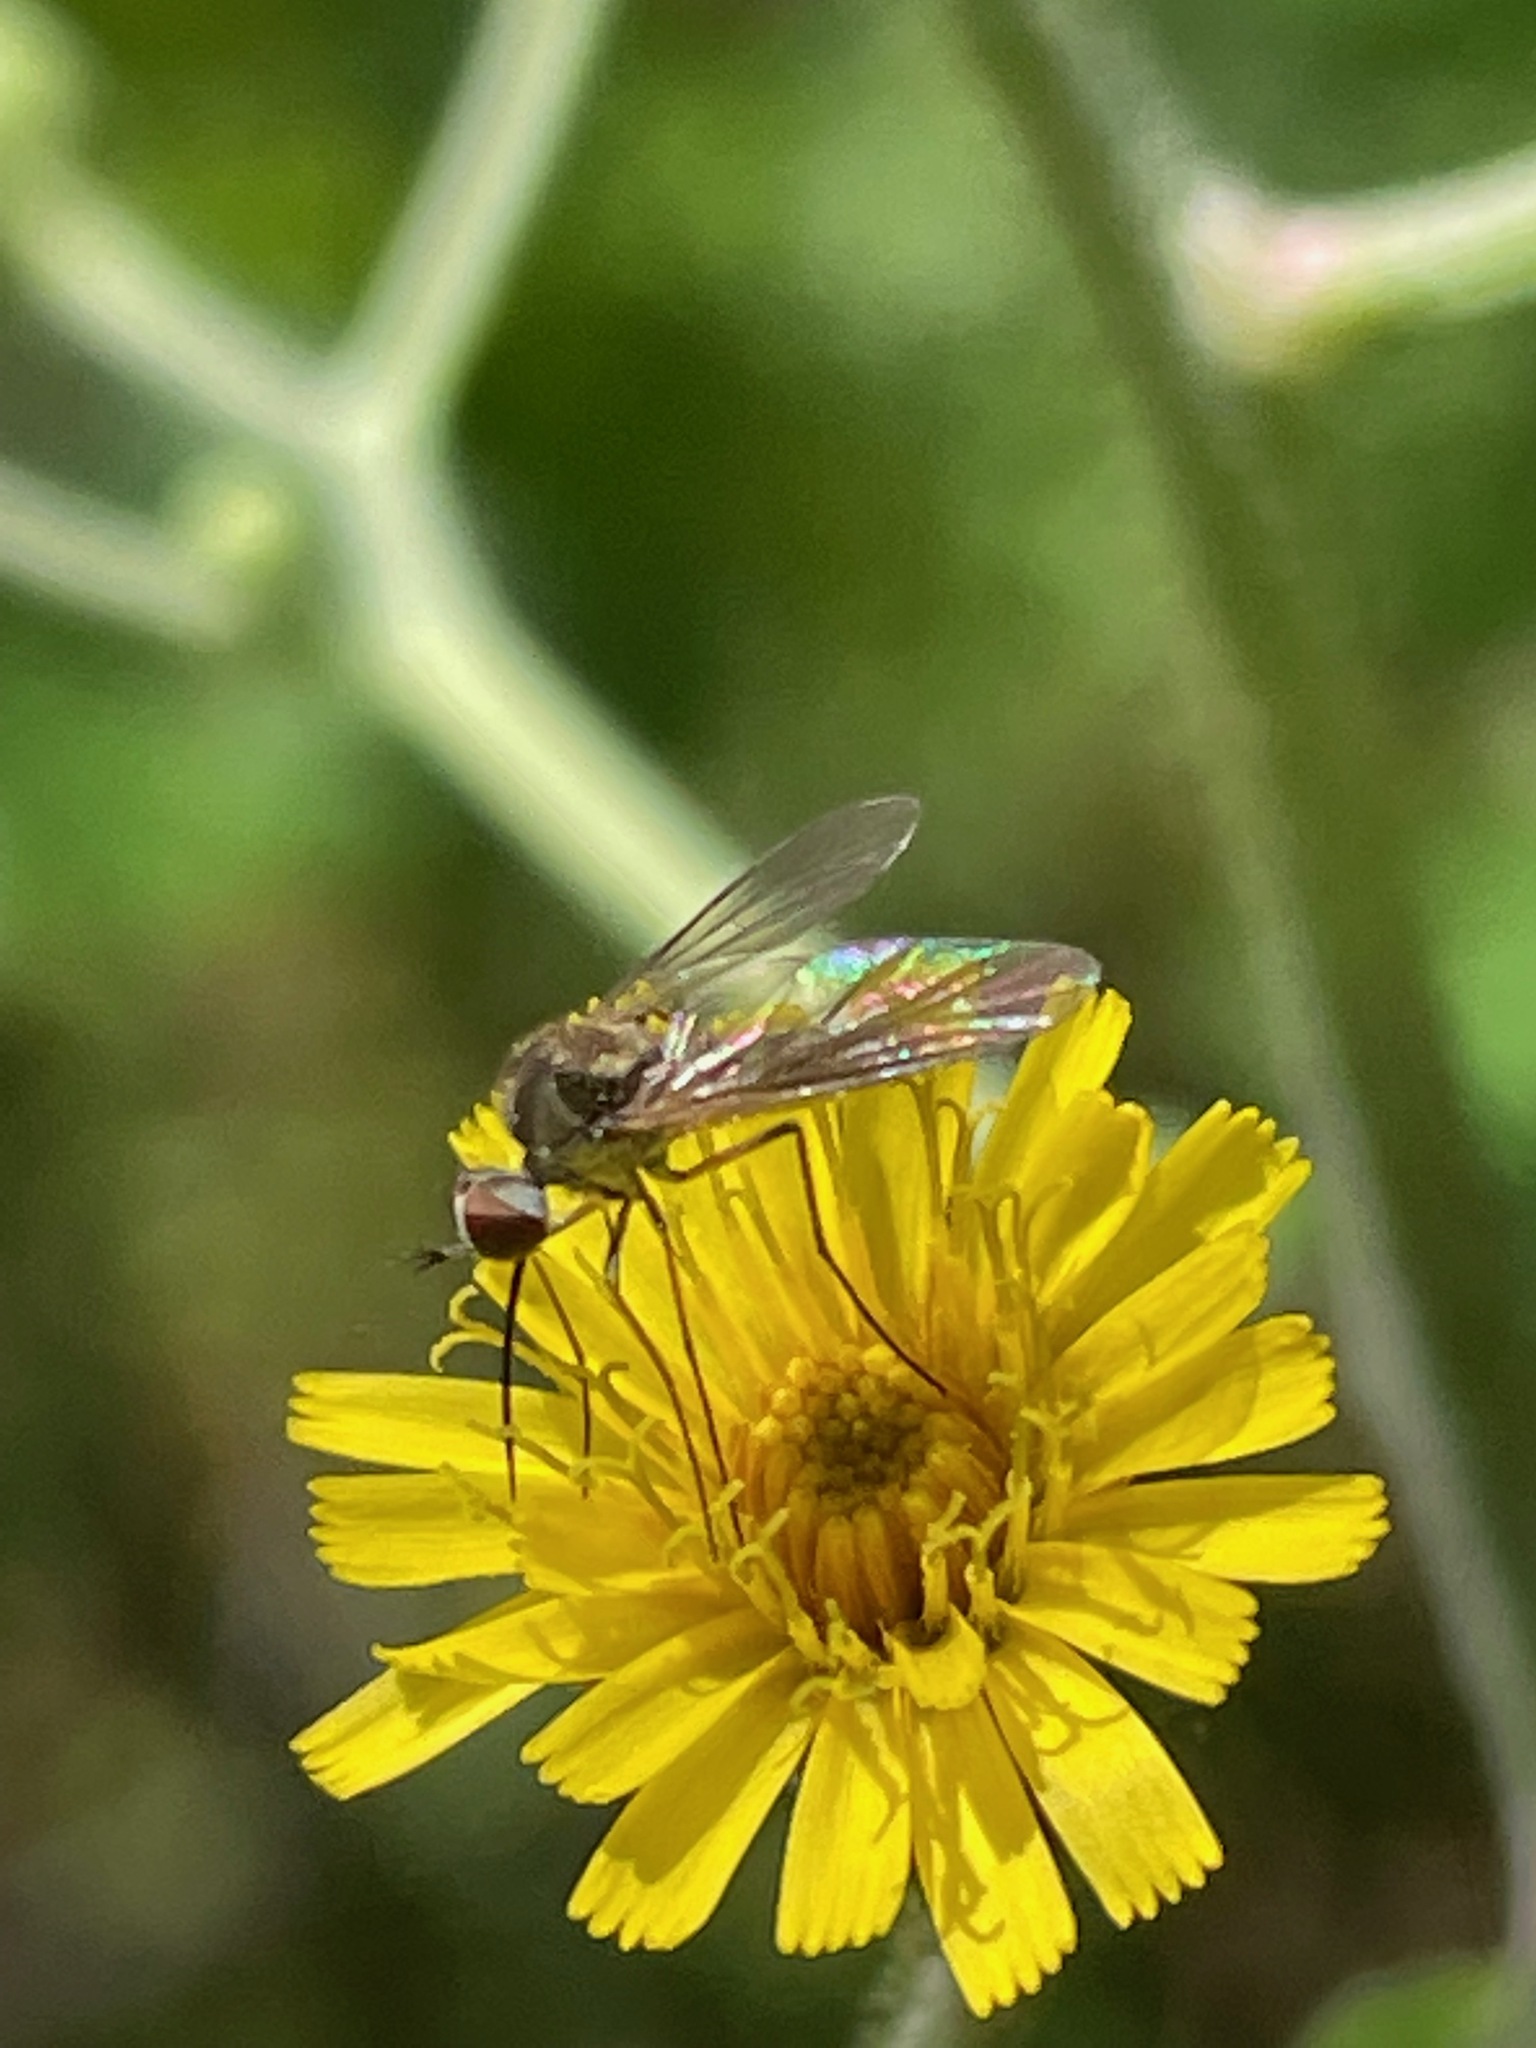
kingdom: Animalia
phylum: Arthropoda
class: Insecta
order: Diptera
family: Bombyliidae
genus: Geron
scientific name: Geron
